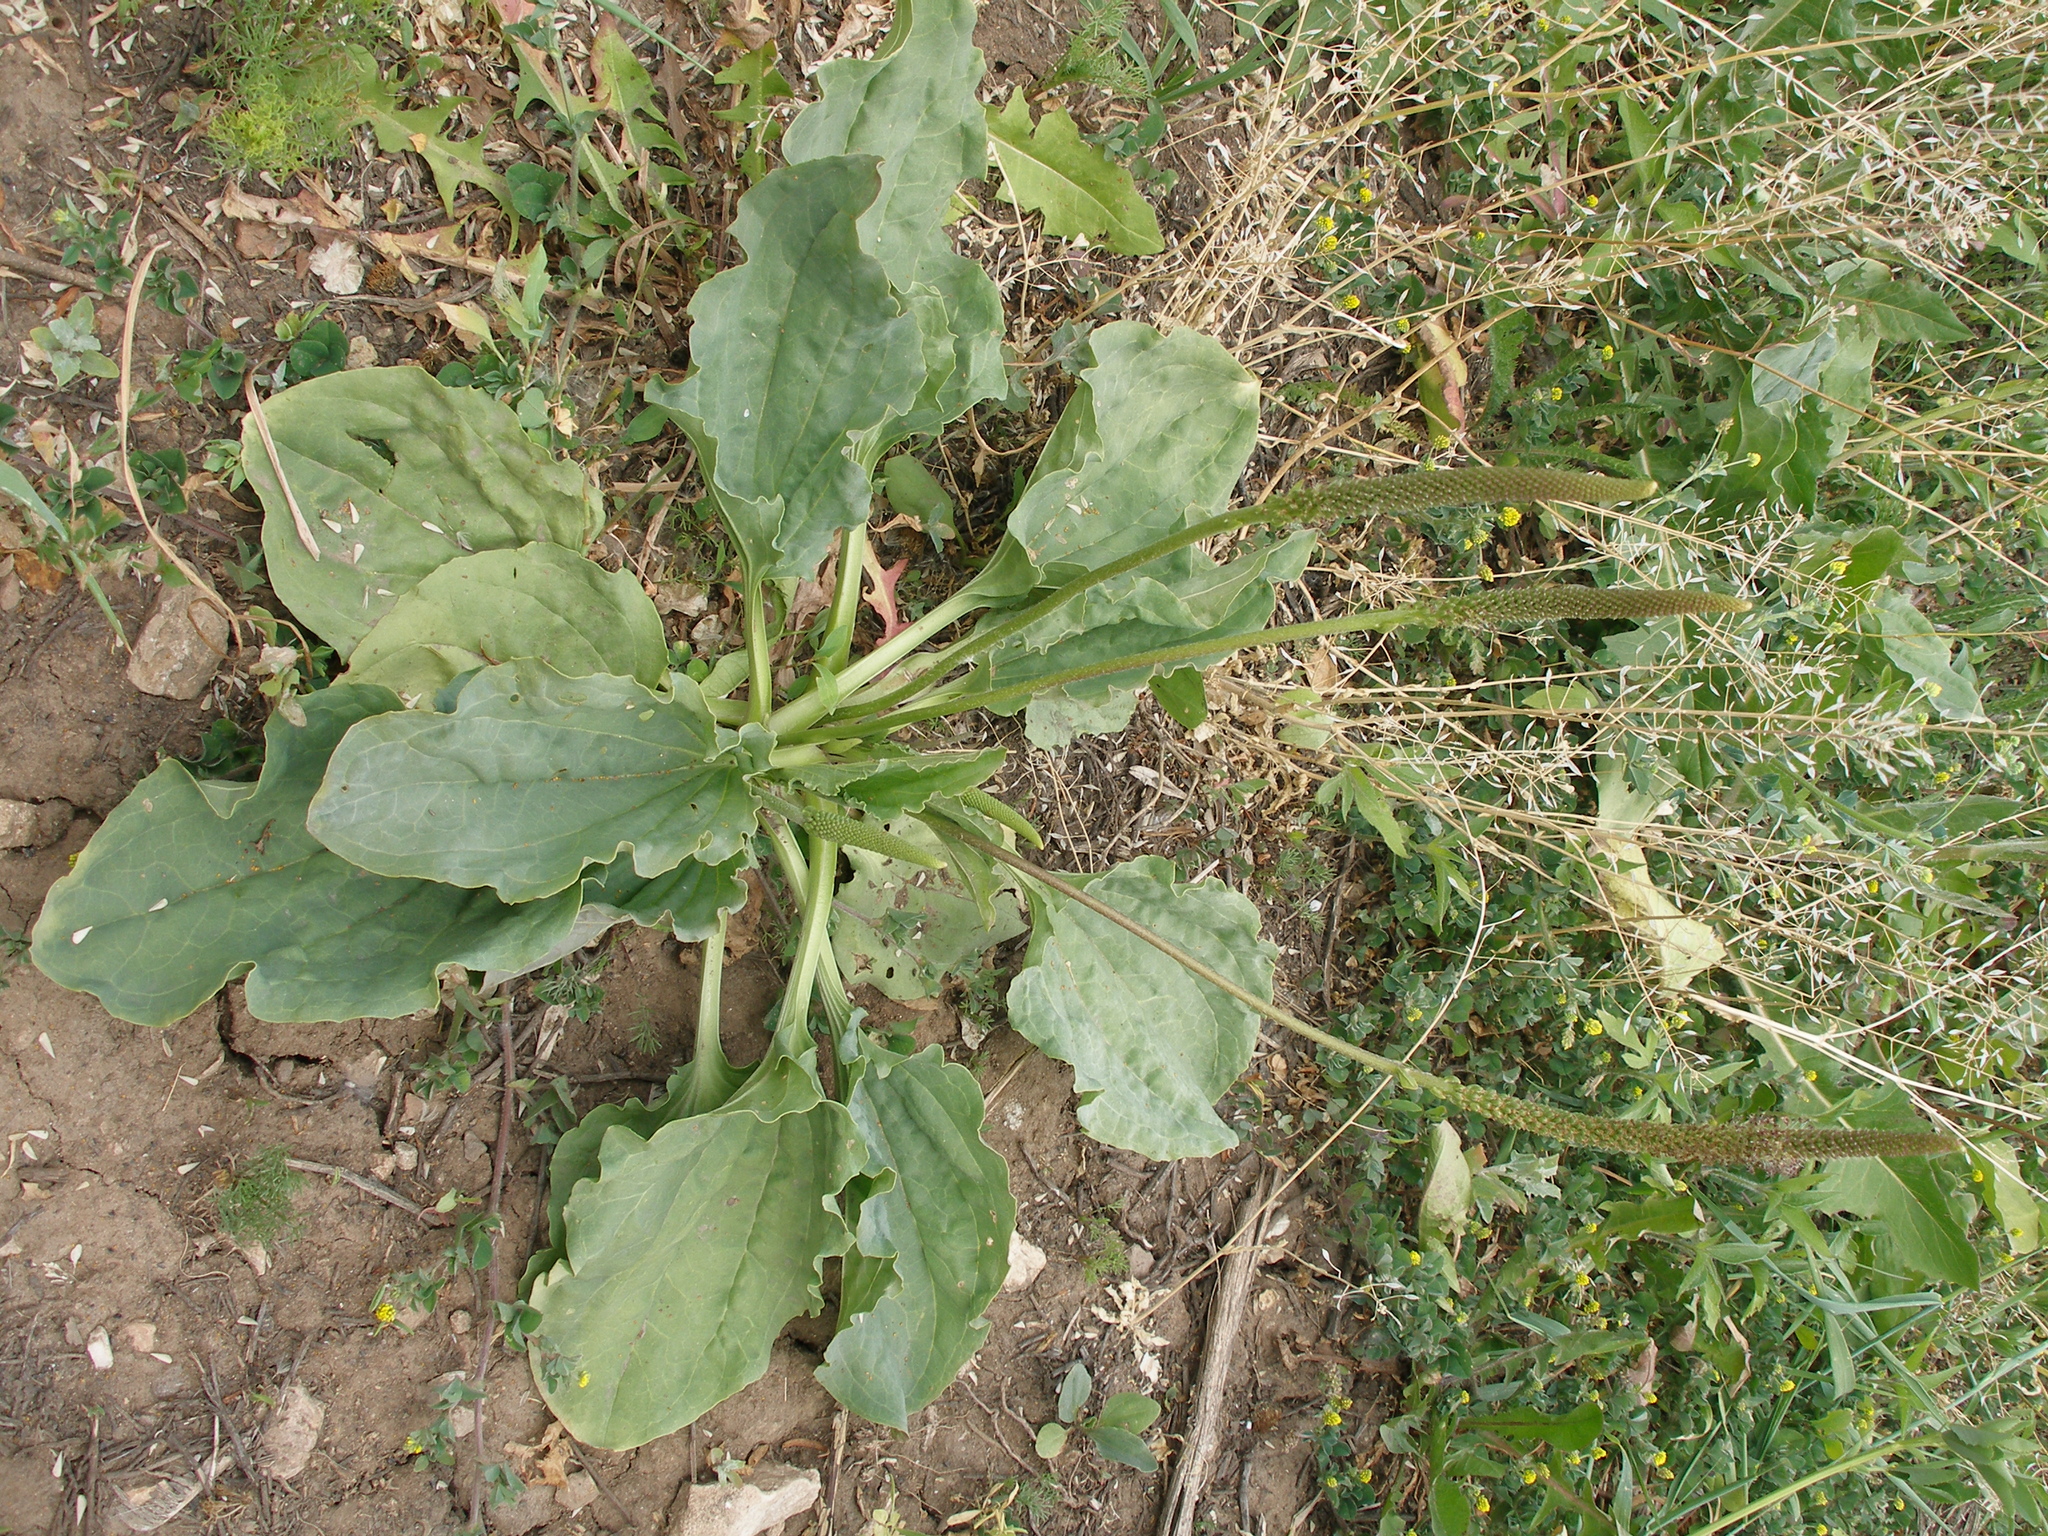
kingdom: Plantae
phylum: Tracheophyta
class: Magnoliopsida
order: Lamiales
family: Plantaginaceae
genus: Plantago
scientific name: Plantago major
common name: Common plantain
